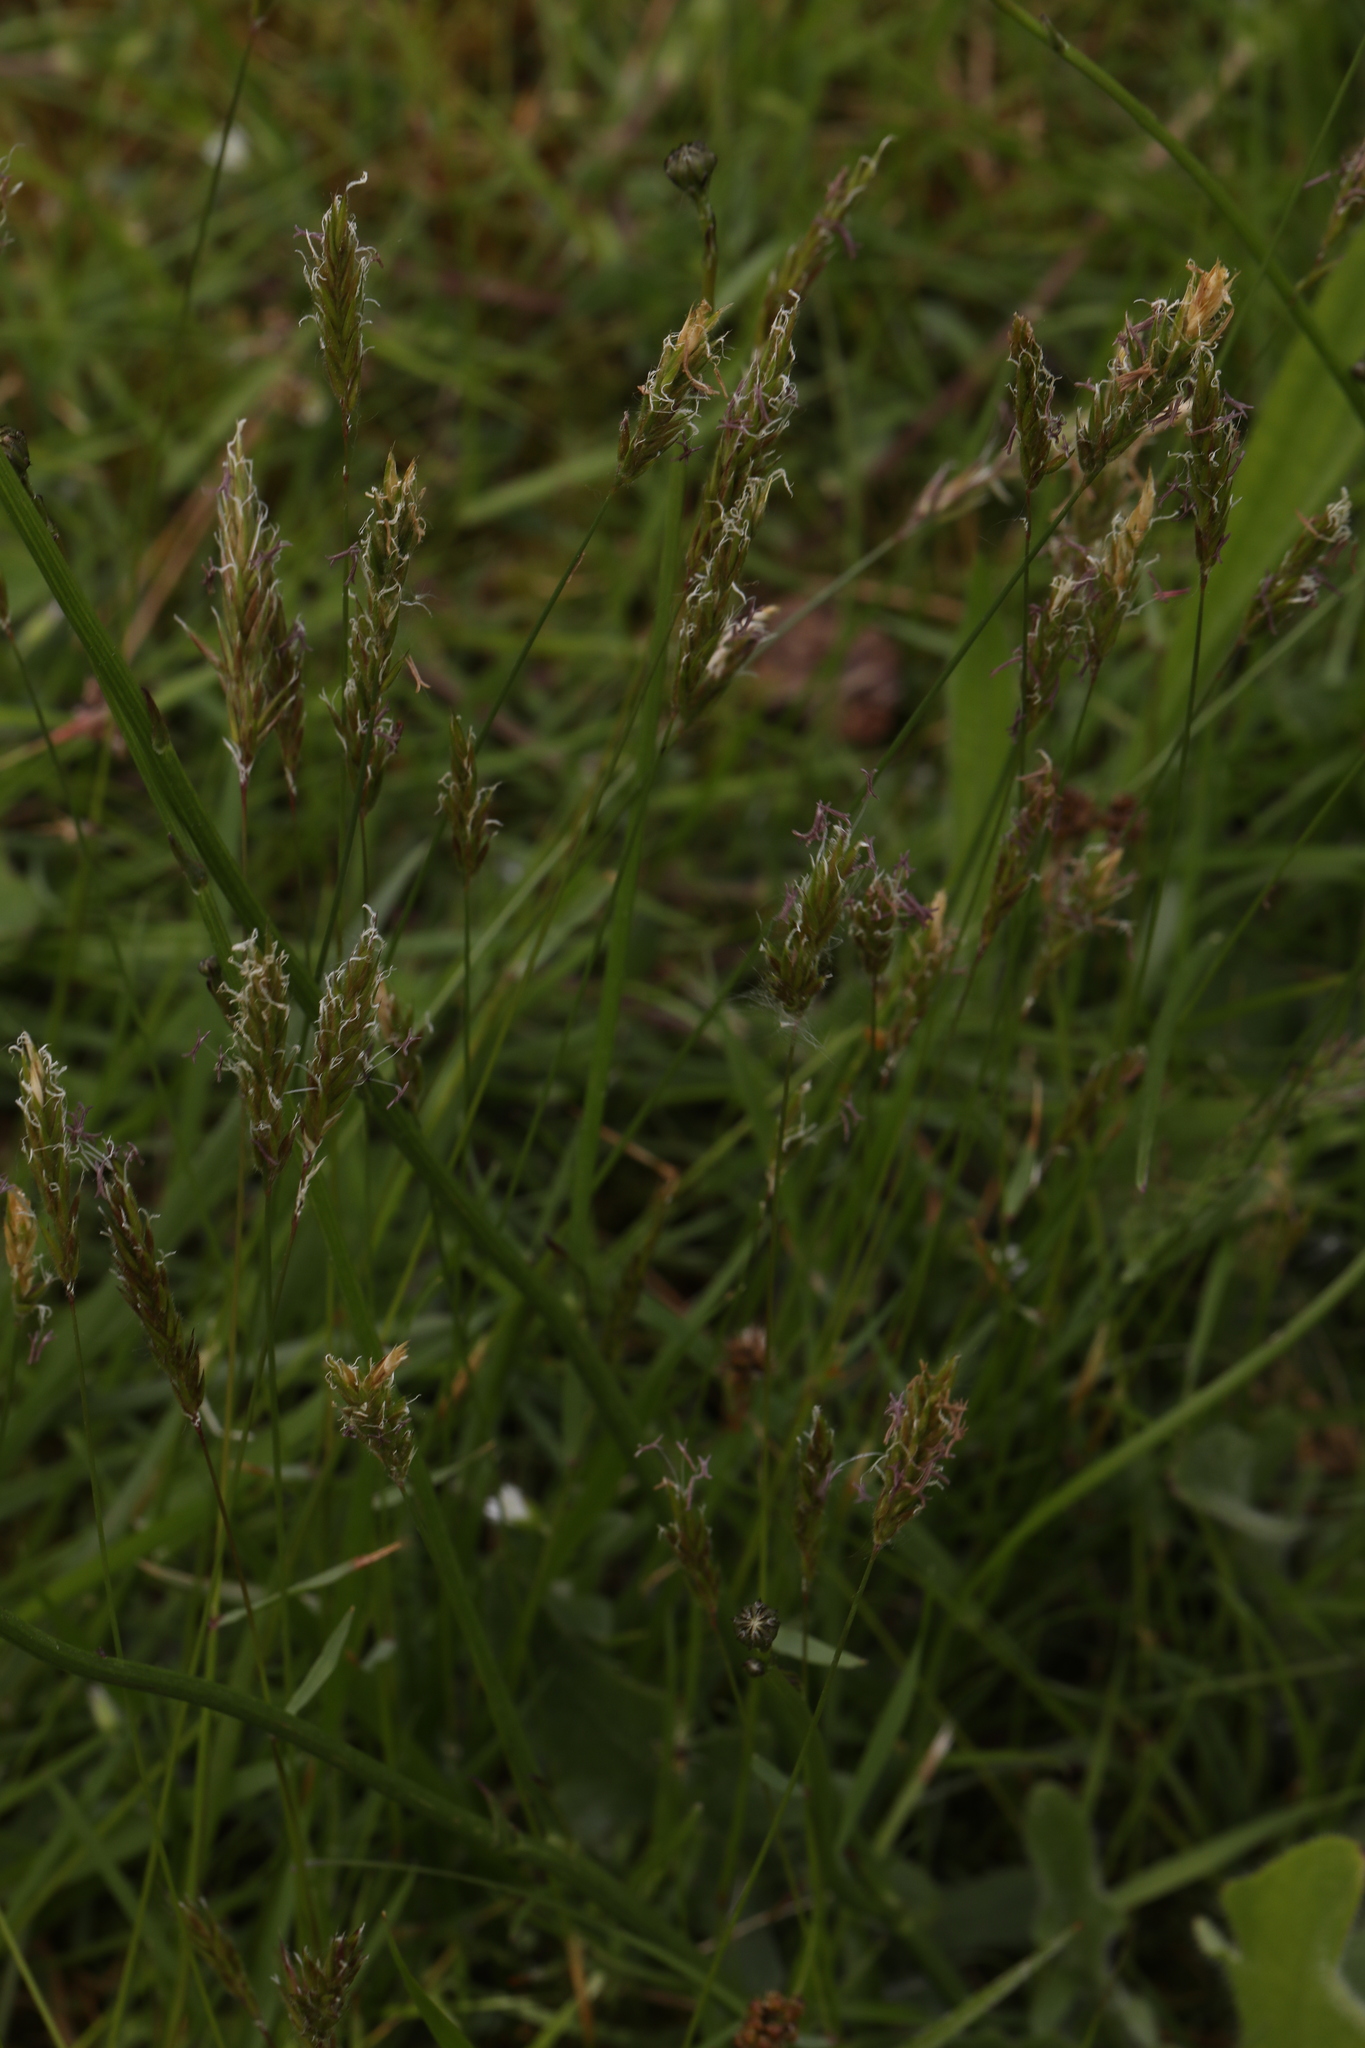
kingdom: Plantae
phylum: Tracheophyta
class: Liliopsida
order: Poales
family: Poaceae
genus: Anthoxanthum
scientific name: Anthoxanthum odoratum
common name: Sweet vernalgrass
